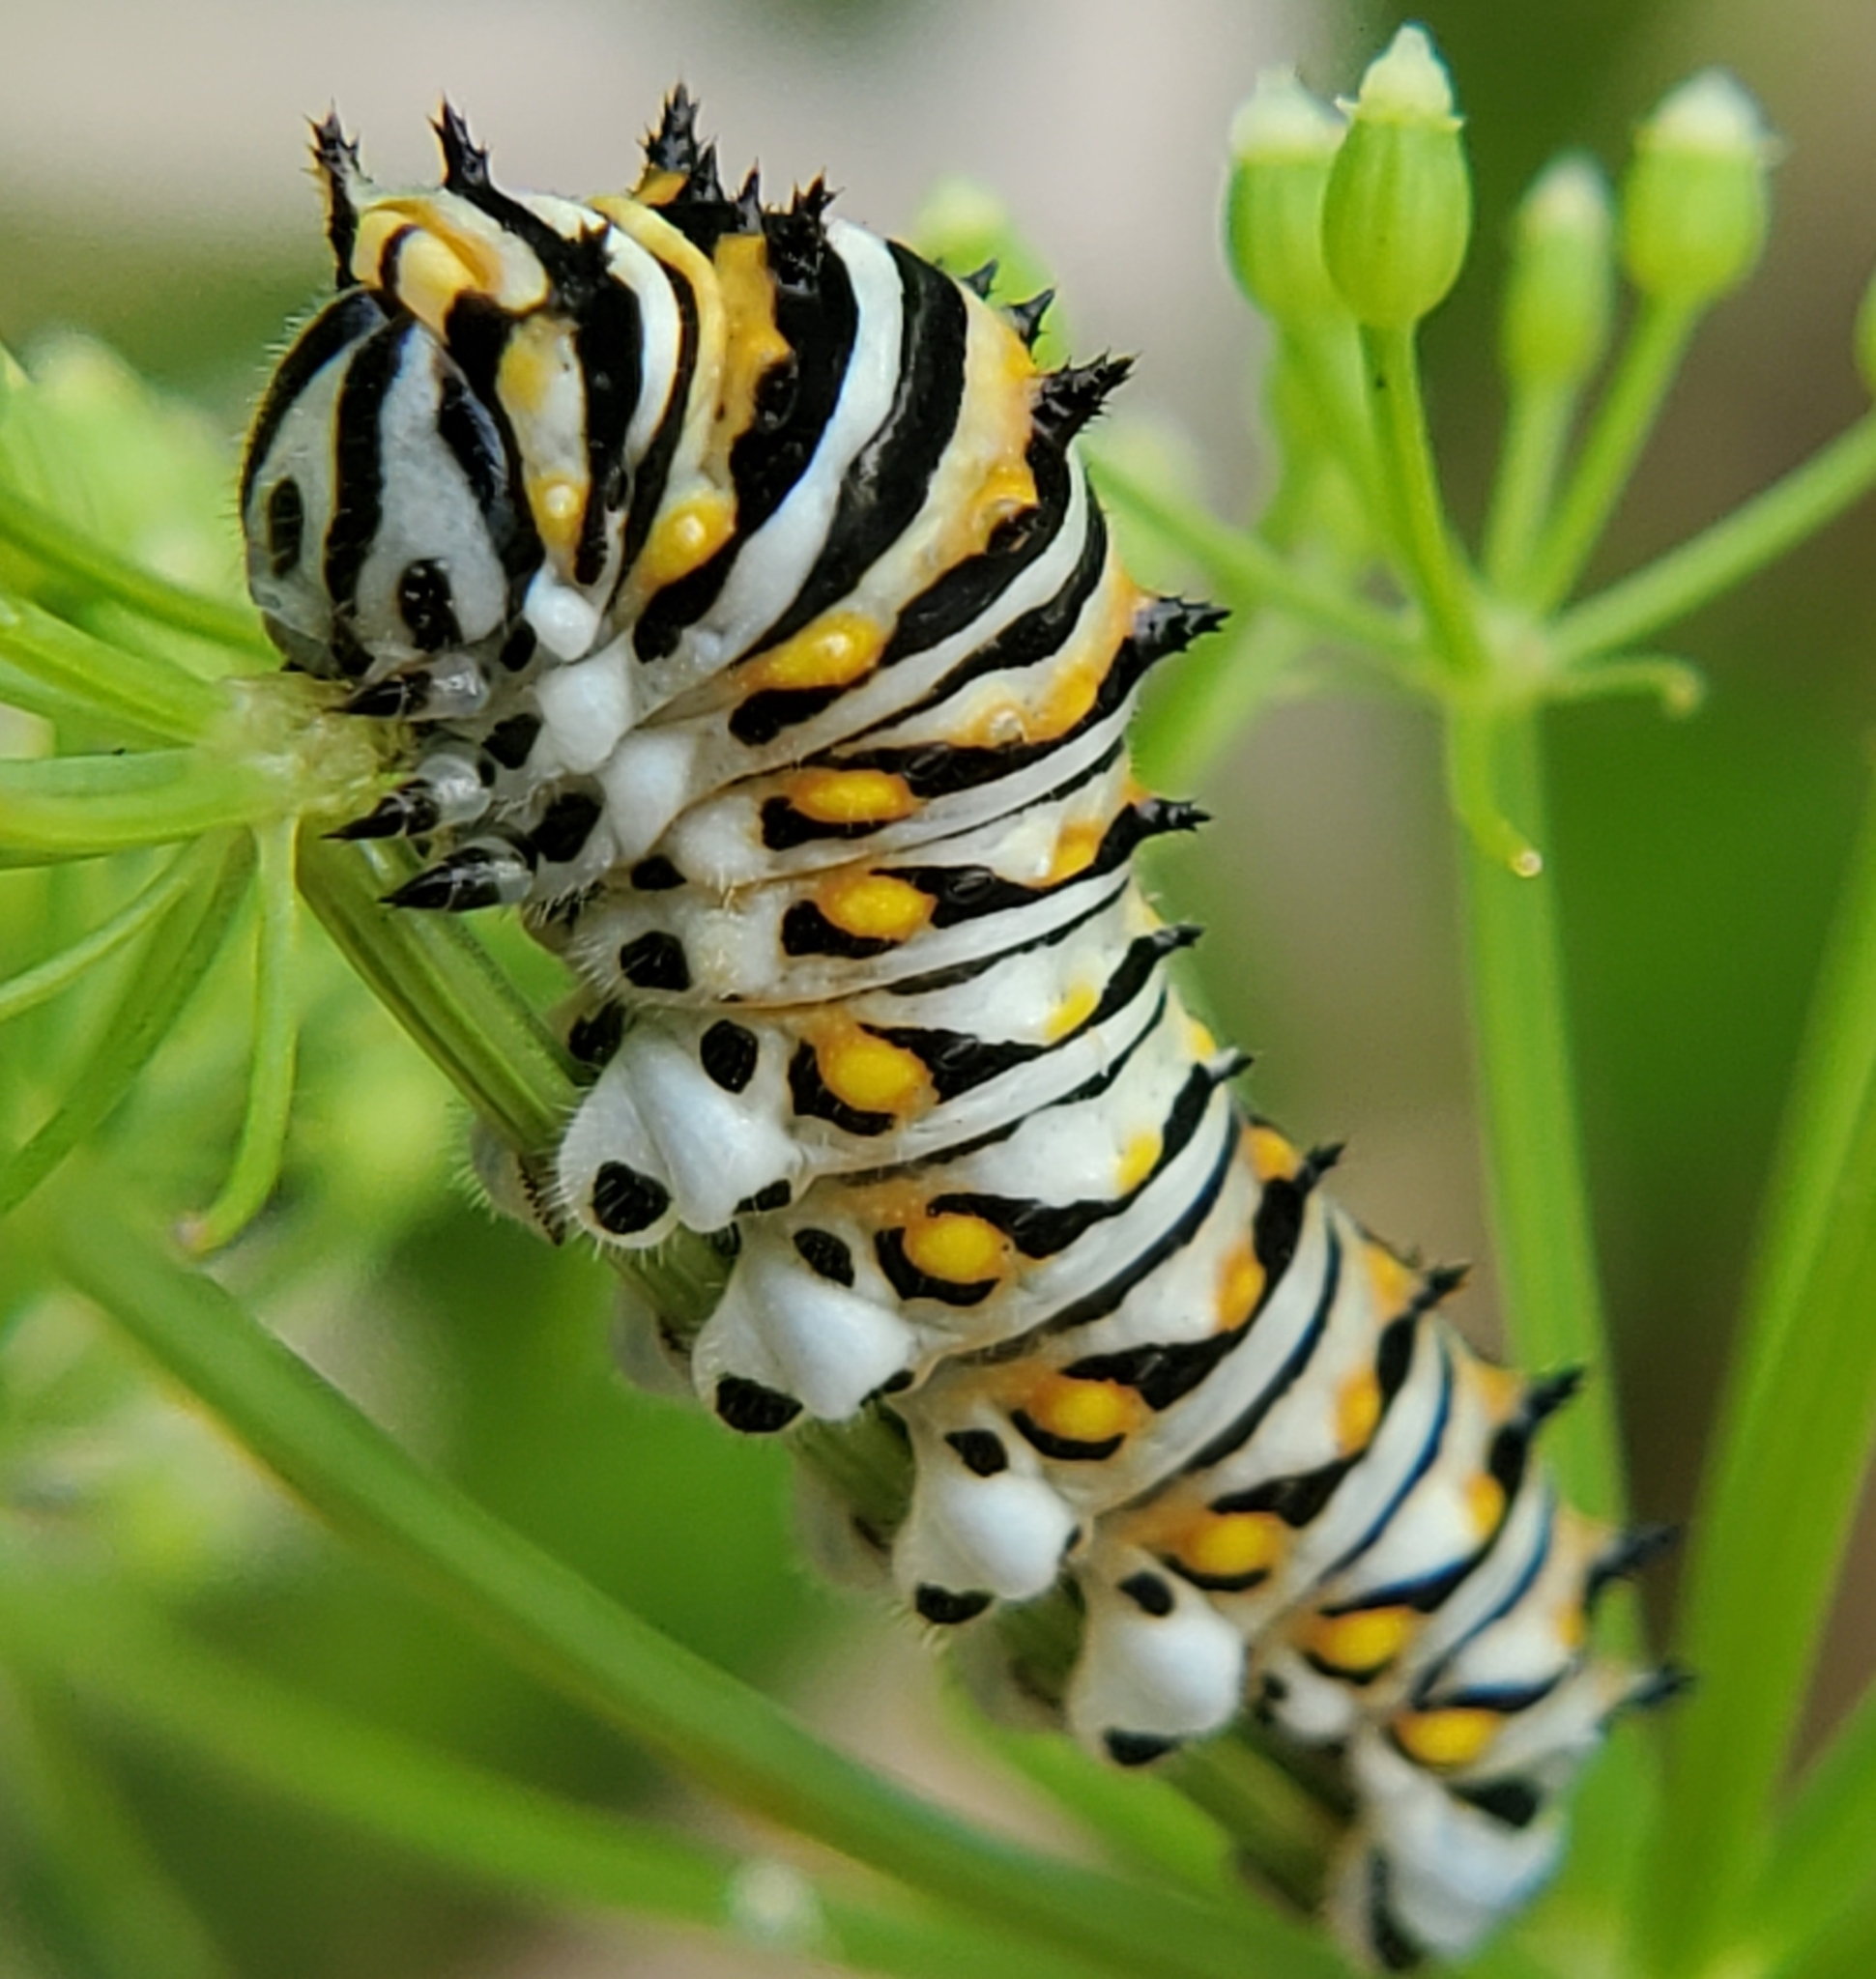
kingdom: Animalia
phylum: Arthropoda
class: Insecta
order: Lepidoptera
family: Papilionidae
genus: Papilio
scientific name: Papilio polyxenes
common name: Black swallowtail
